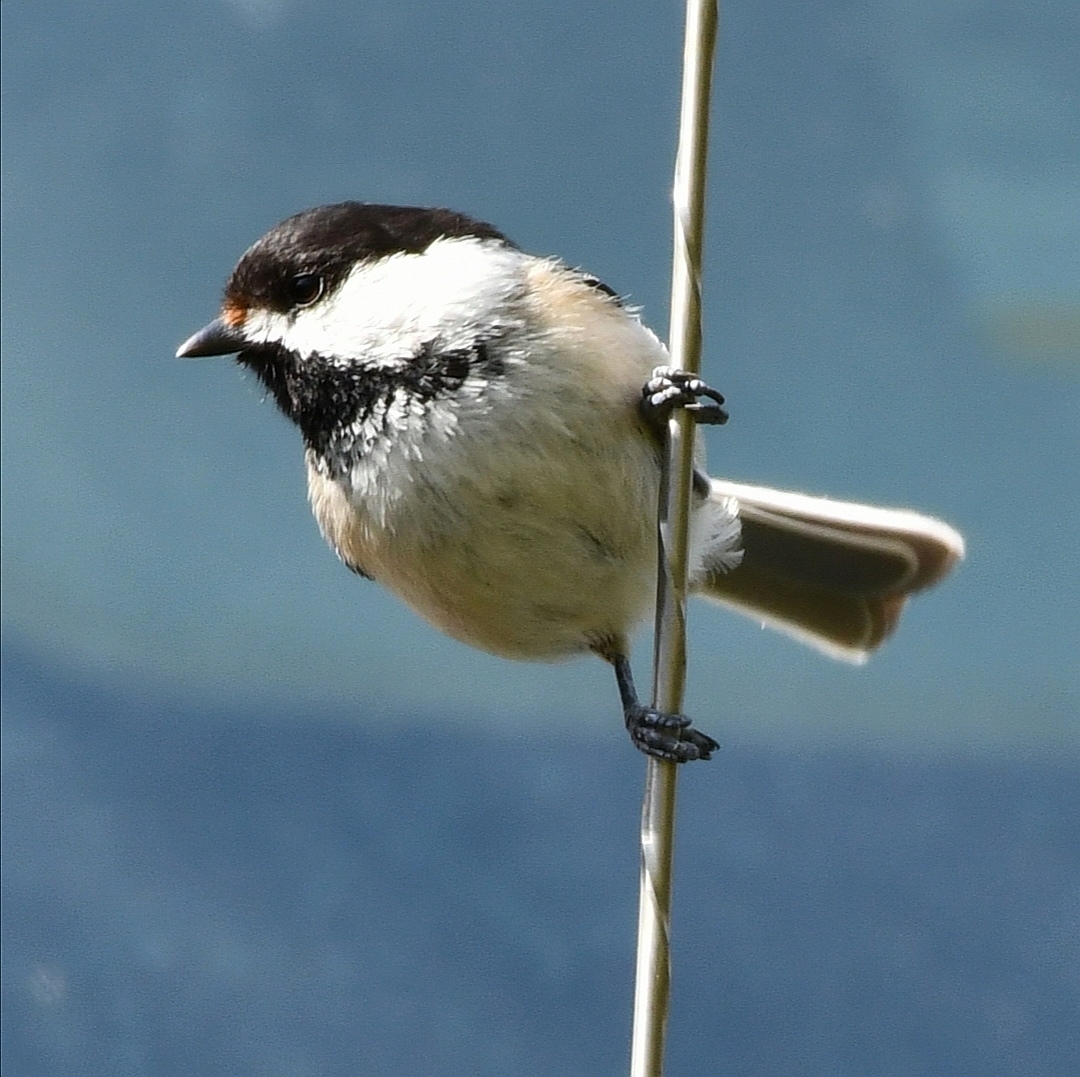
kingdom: Animalia
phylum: Chordata
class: Aves
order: Passeriformes
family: Paridae
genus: Poecile
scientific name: Poecile atricapillus
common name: Black-capped chickadee
